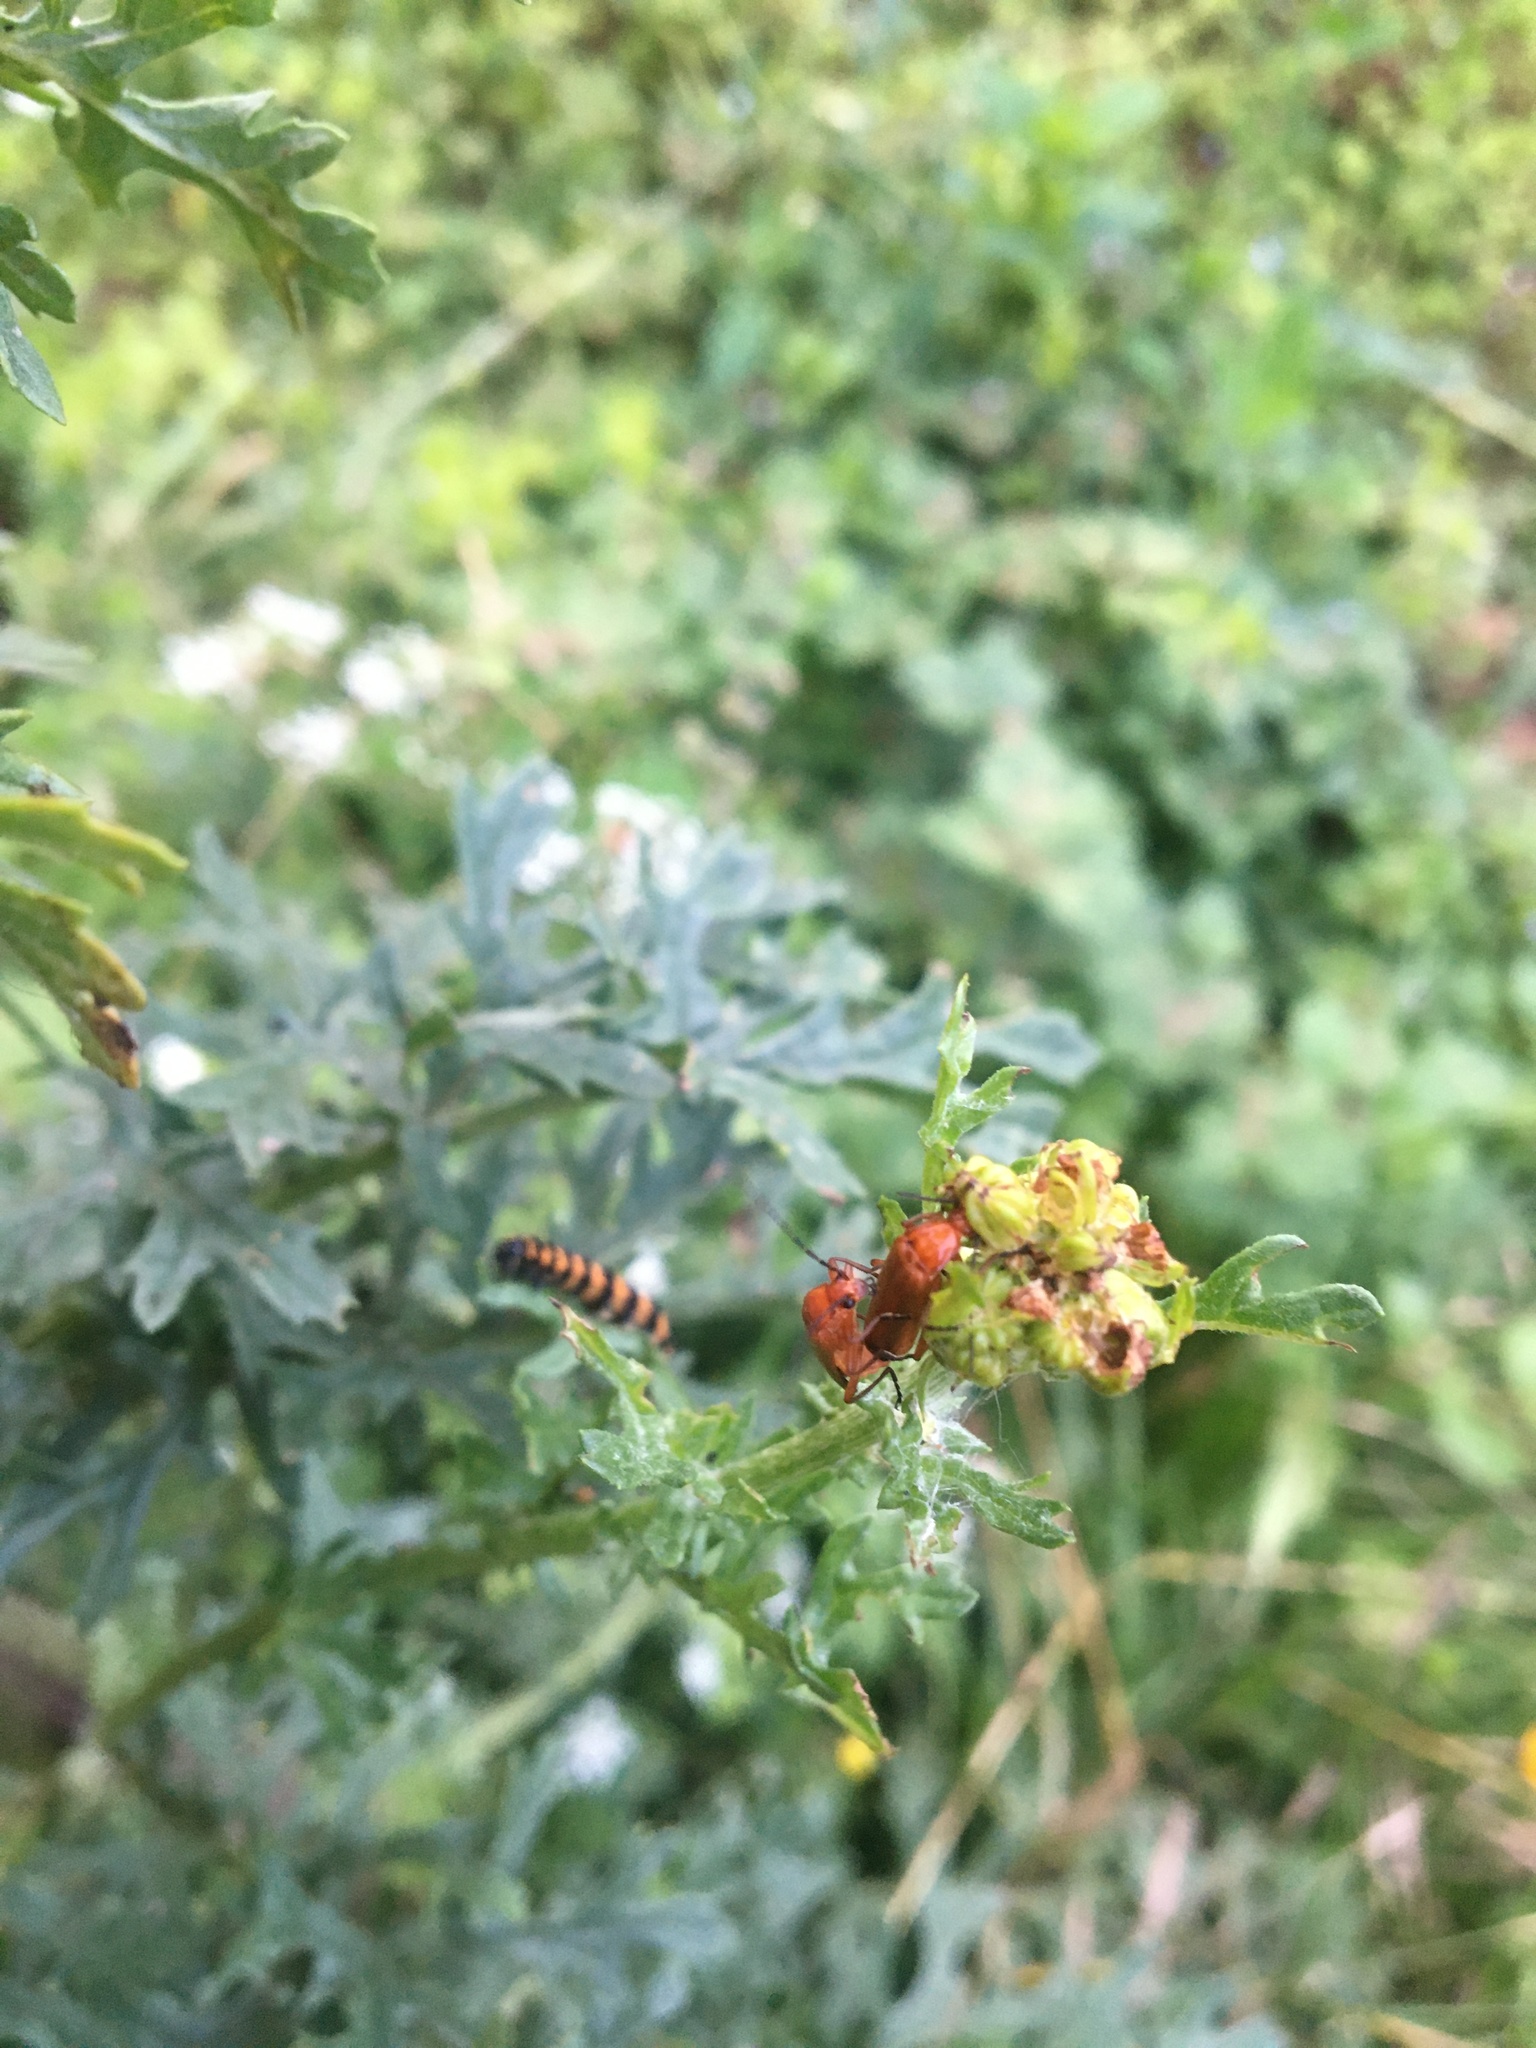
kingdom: Animalia
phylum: Arthropoda
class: Insecta
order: Coleoptera
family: Cantharidae
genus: Rhagonycha
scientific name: Rhagonycha fulva
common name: Common red soldier beetle
